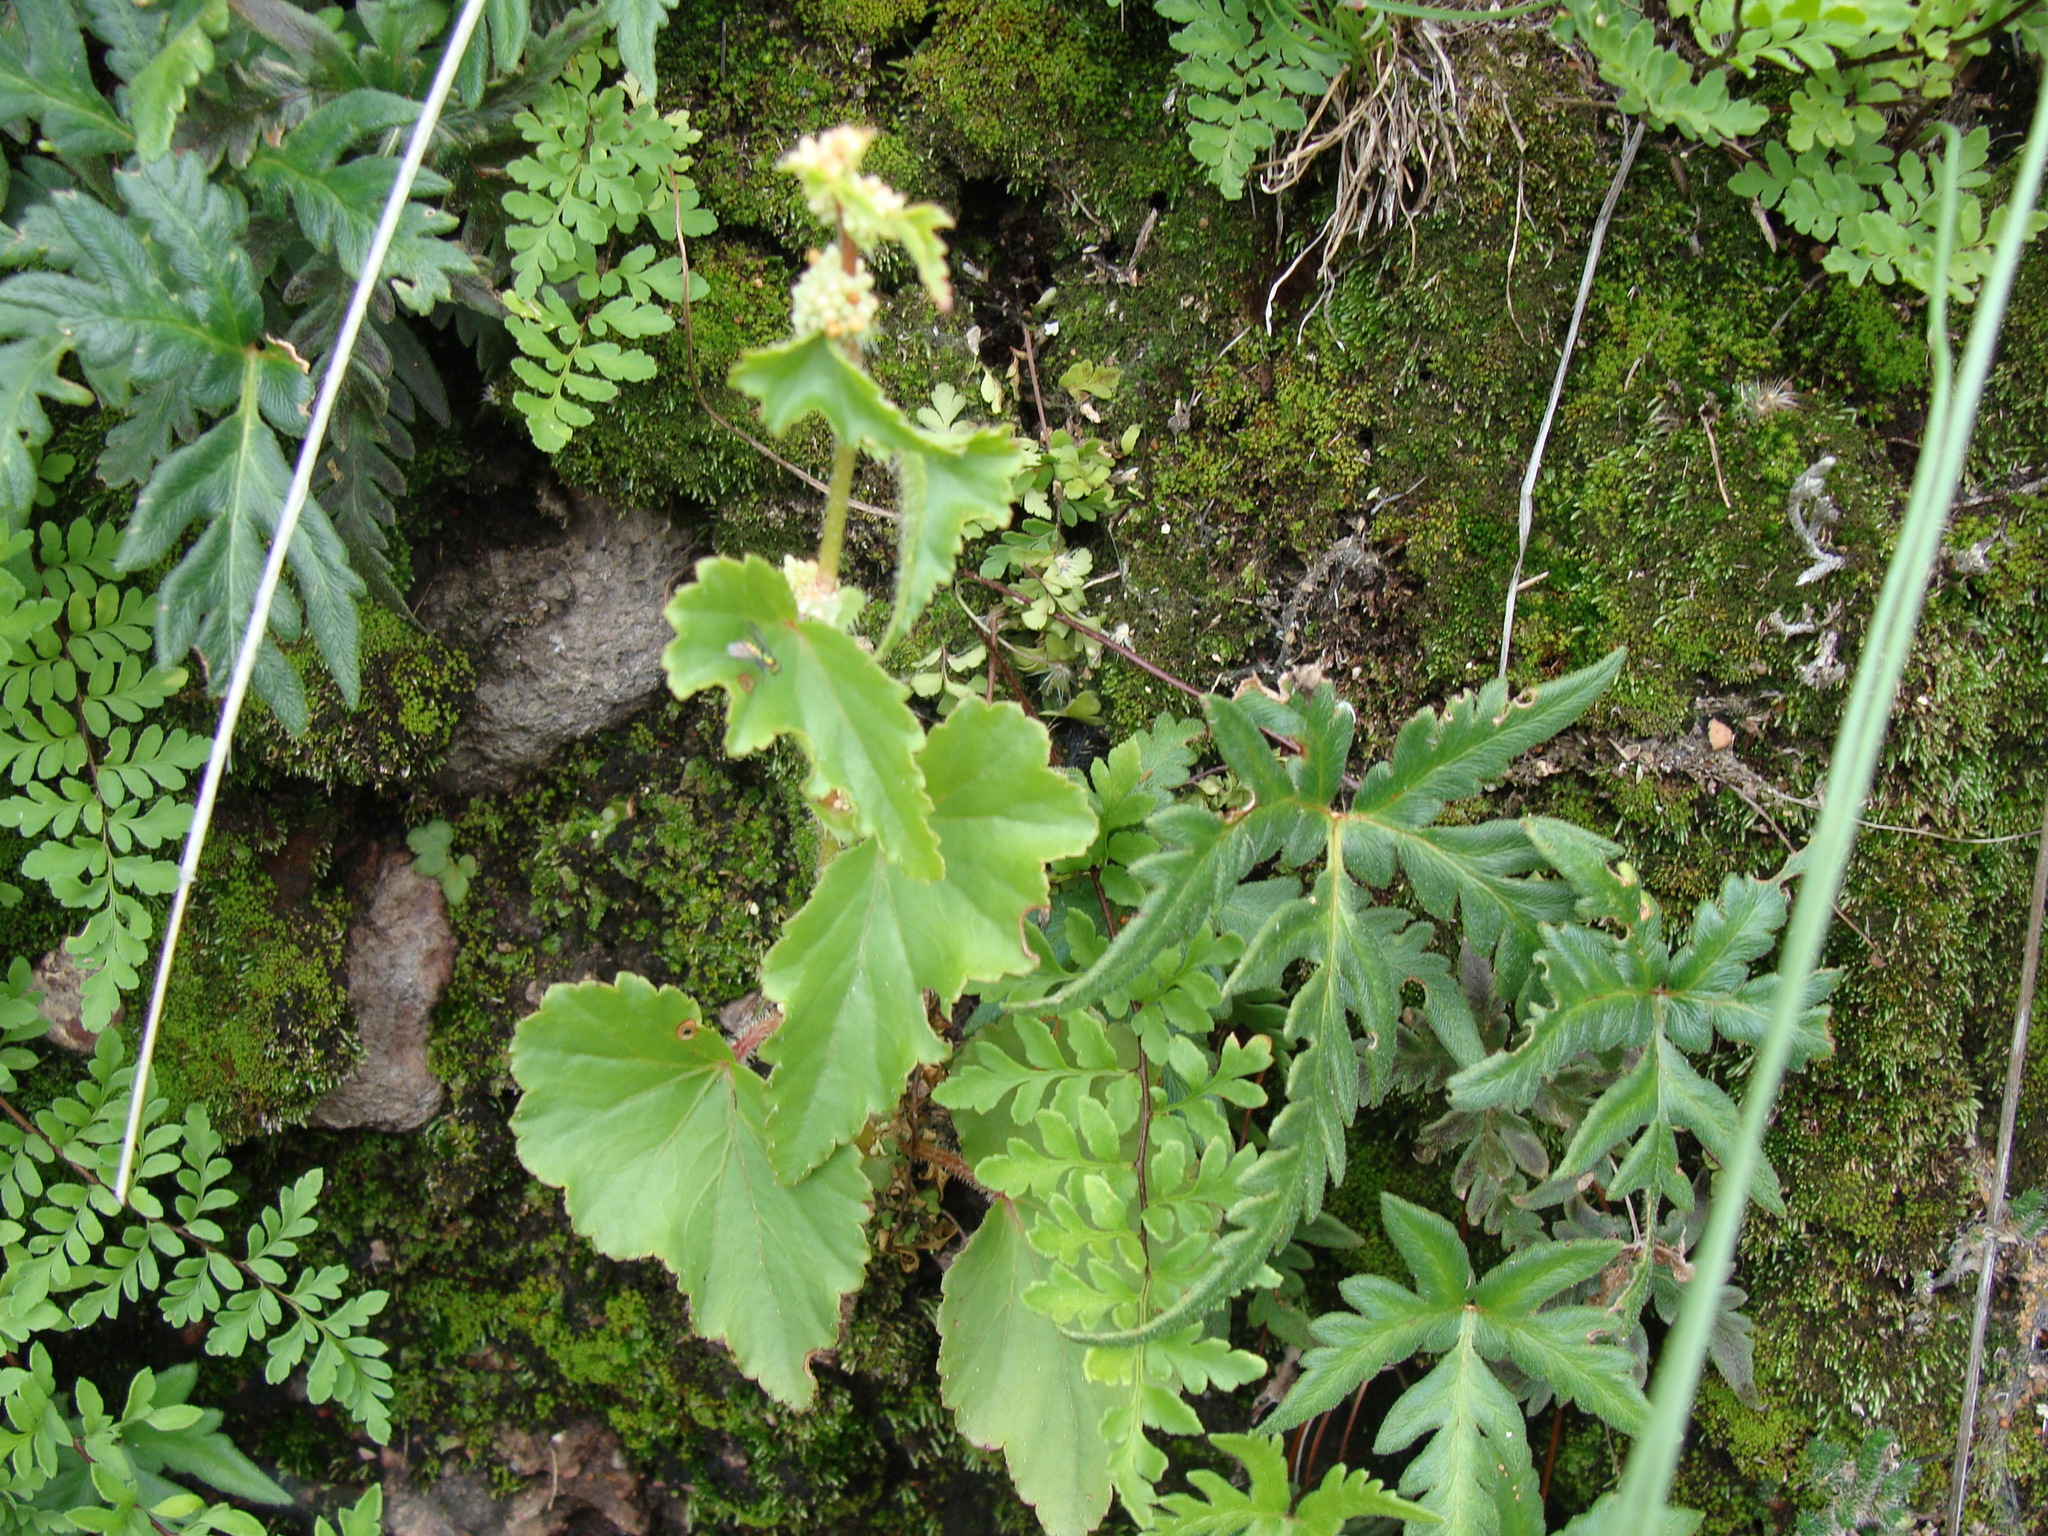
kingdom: Plantae
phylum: Tracheophyta
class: Magnoliopsida
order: Cucurbitales
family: Begoniaceae
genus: Begonia
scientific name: Begonia gracilis
